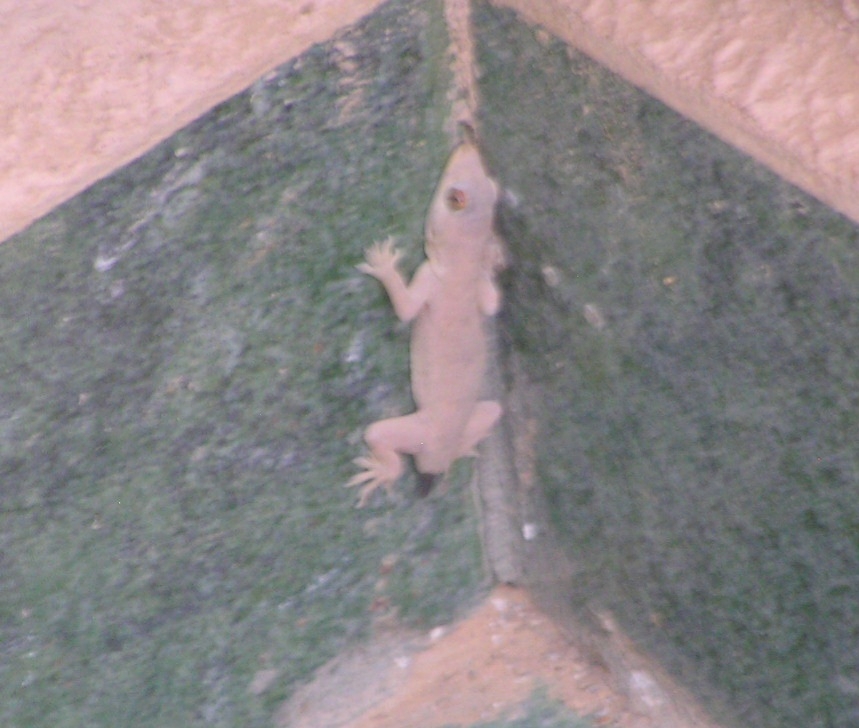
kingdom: Animalia
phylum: Chordata
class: Squamata
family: Gekkonidae
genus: Hemidactylus
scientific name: Hemidactylus flaviviridis
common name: Northern house gecko
